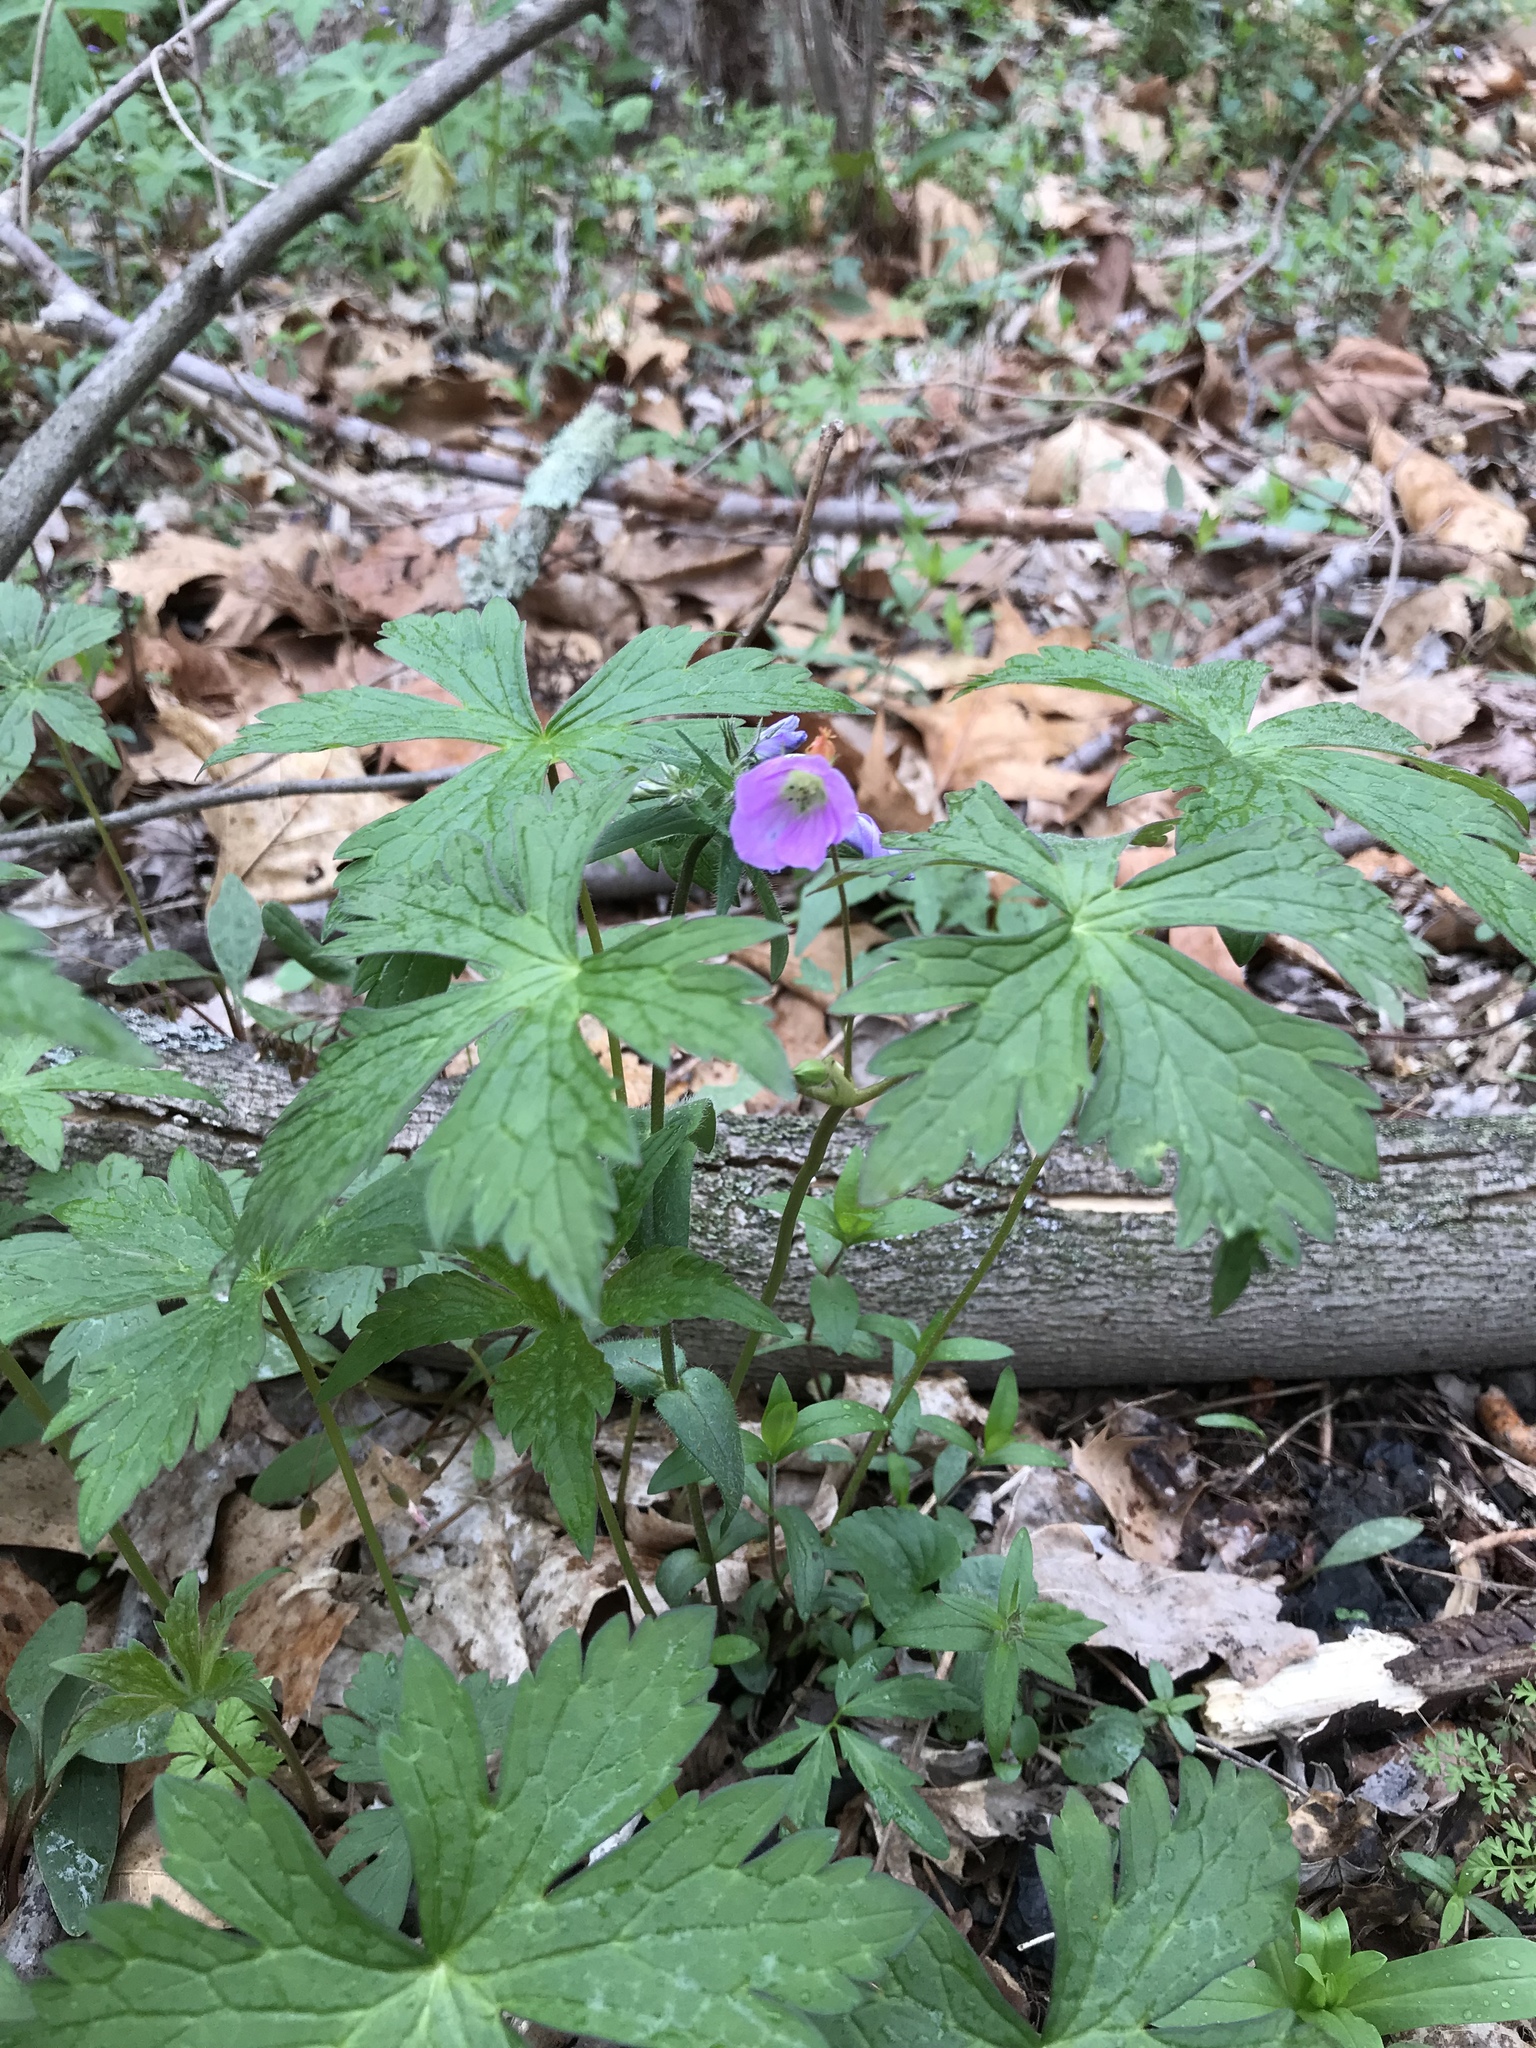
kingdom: Plantae
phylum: Tracheophyta
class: Magnoliopsida
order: Geraniales
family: Geraniaceae
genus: Geranium
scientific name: Geranium maculatum
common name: Spotted geranium
